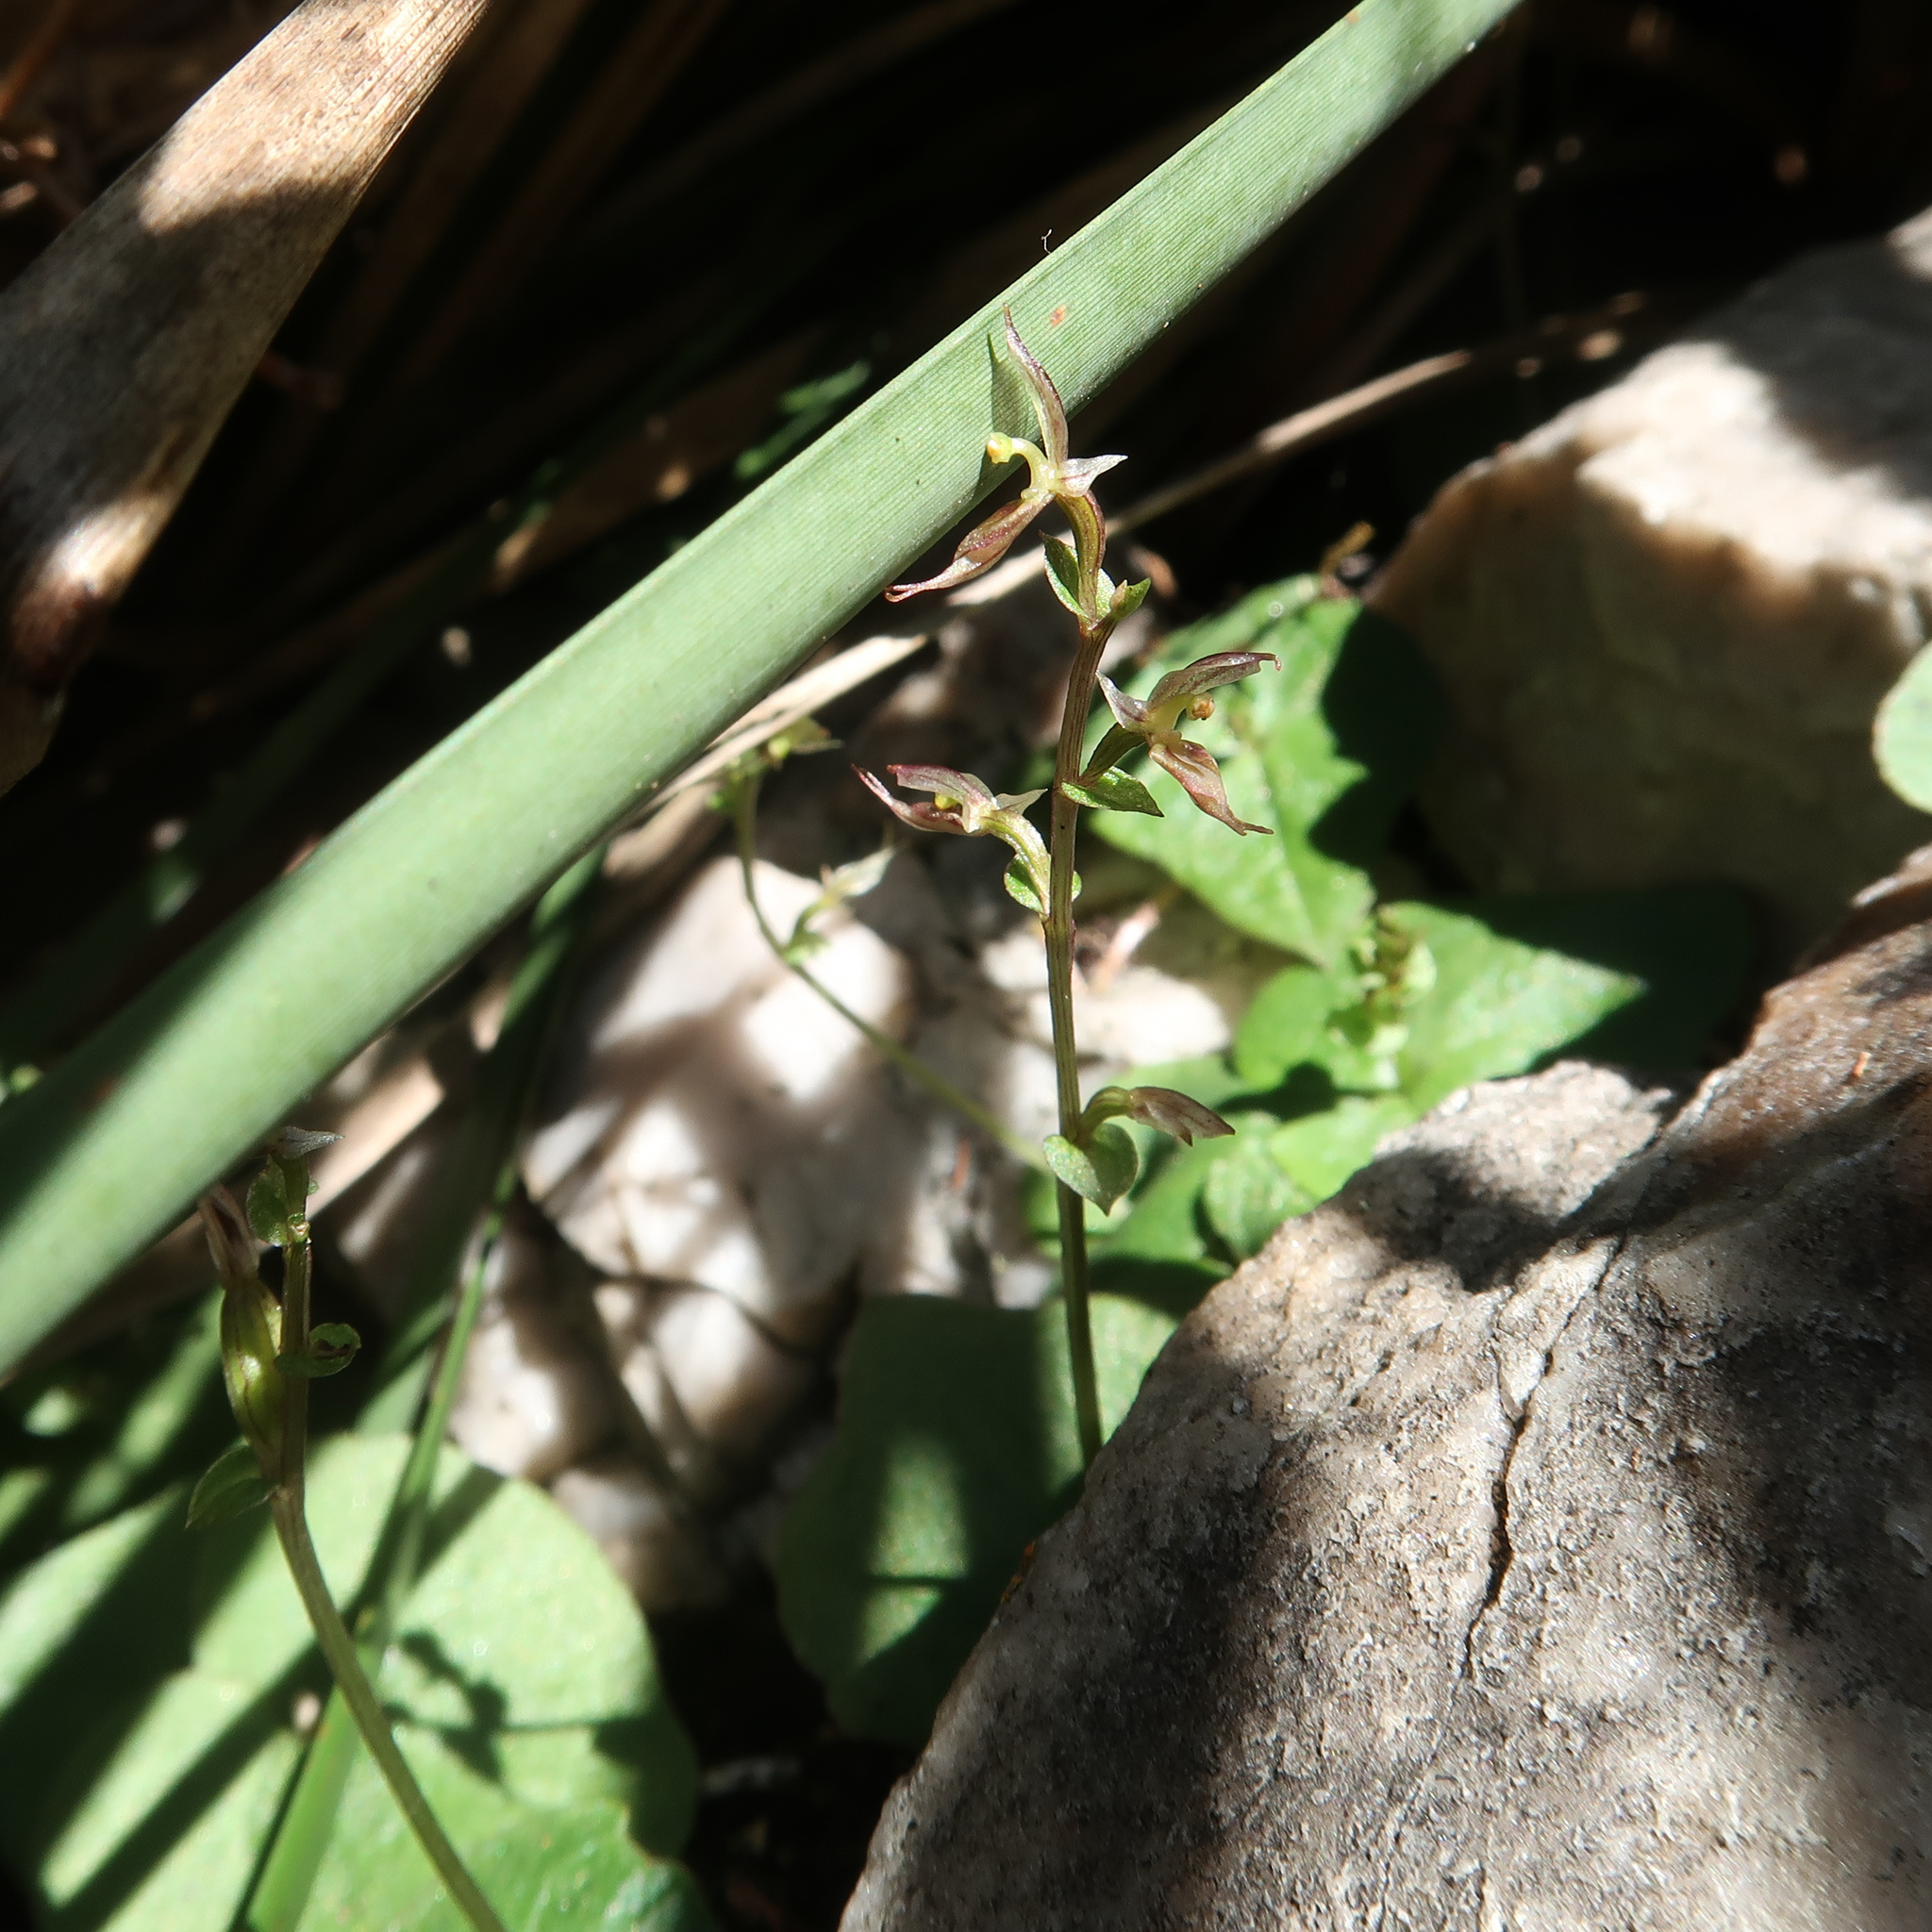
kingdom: Plantae
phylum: Tracheophyta
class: Liliopsida
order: Asparagales
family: Orchidaceae
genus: Acianthus
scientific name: Acianthus pusillus
